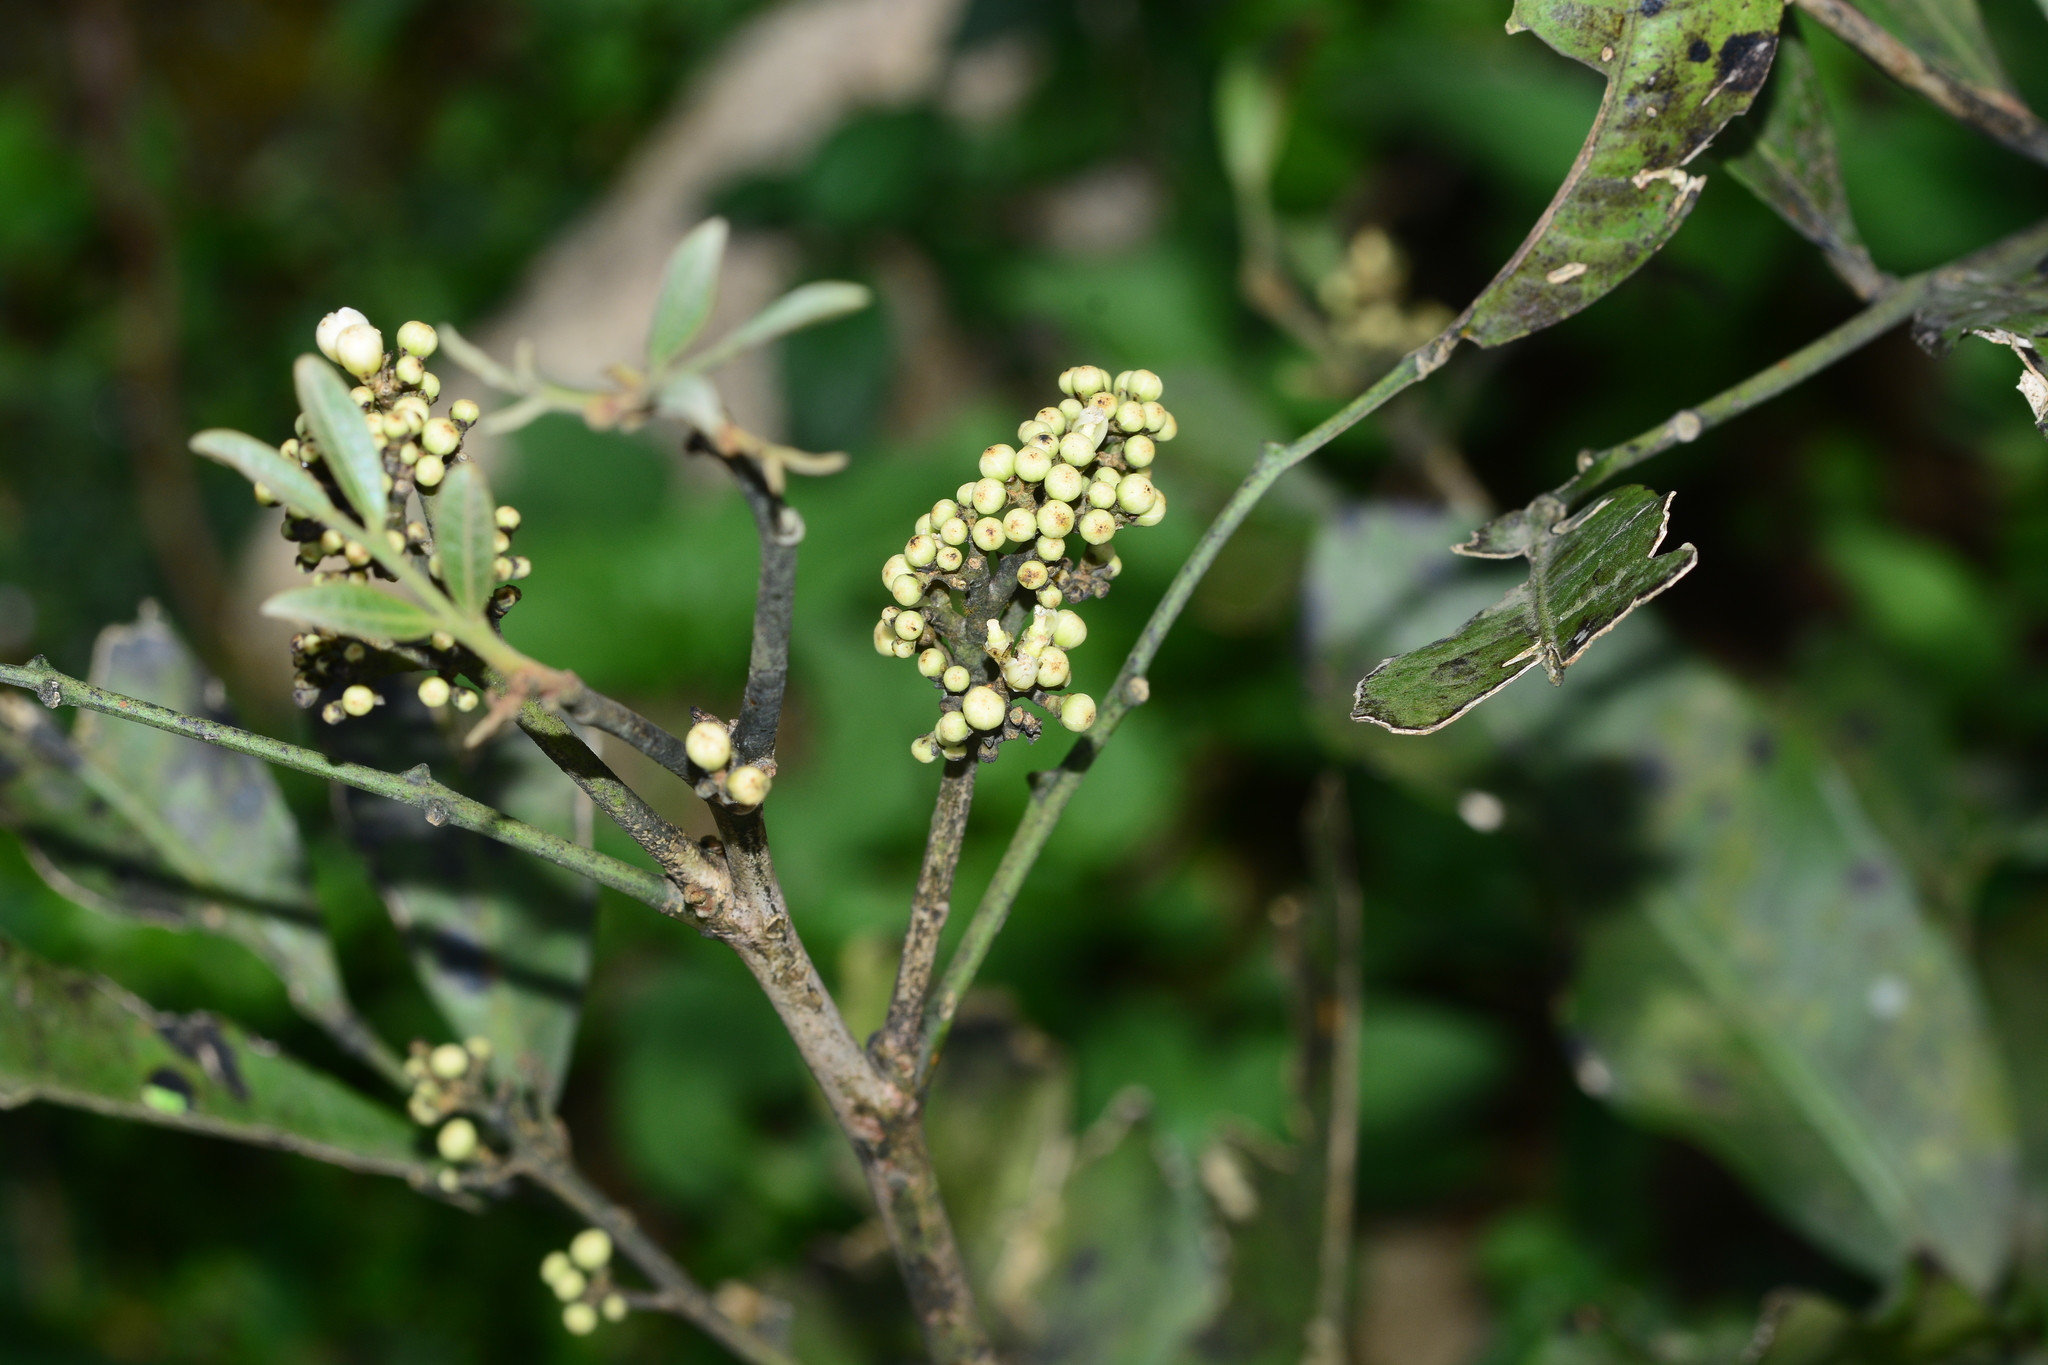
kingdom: Plantae
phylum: Tracheophyta
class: Magnoliopsida
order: Sapindales
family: Rutaceae
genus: Glycosmis
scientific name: Glycosmis pentaphylla
